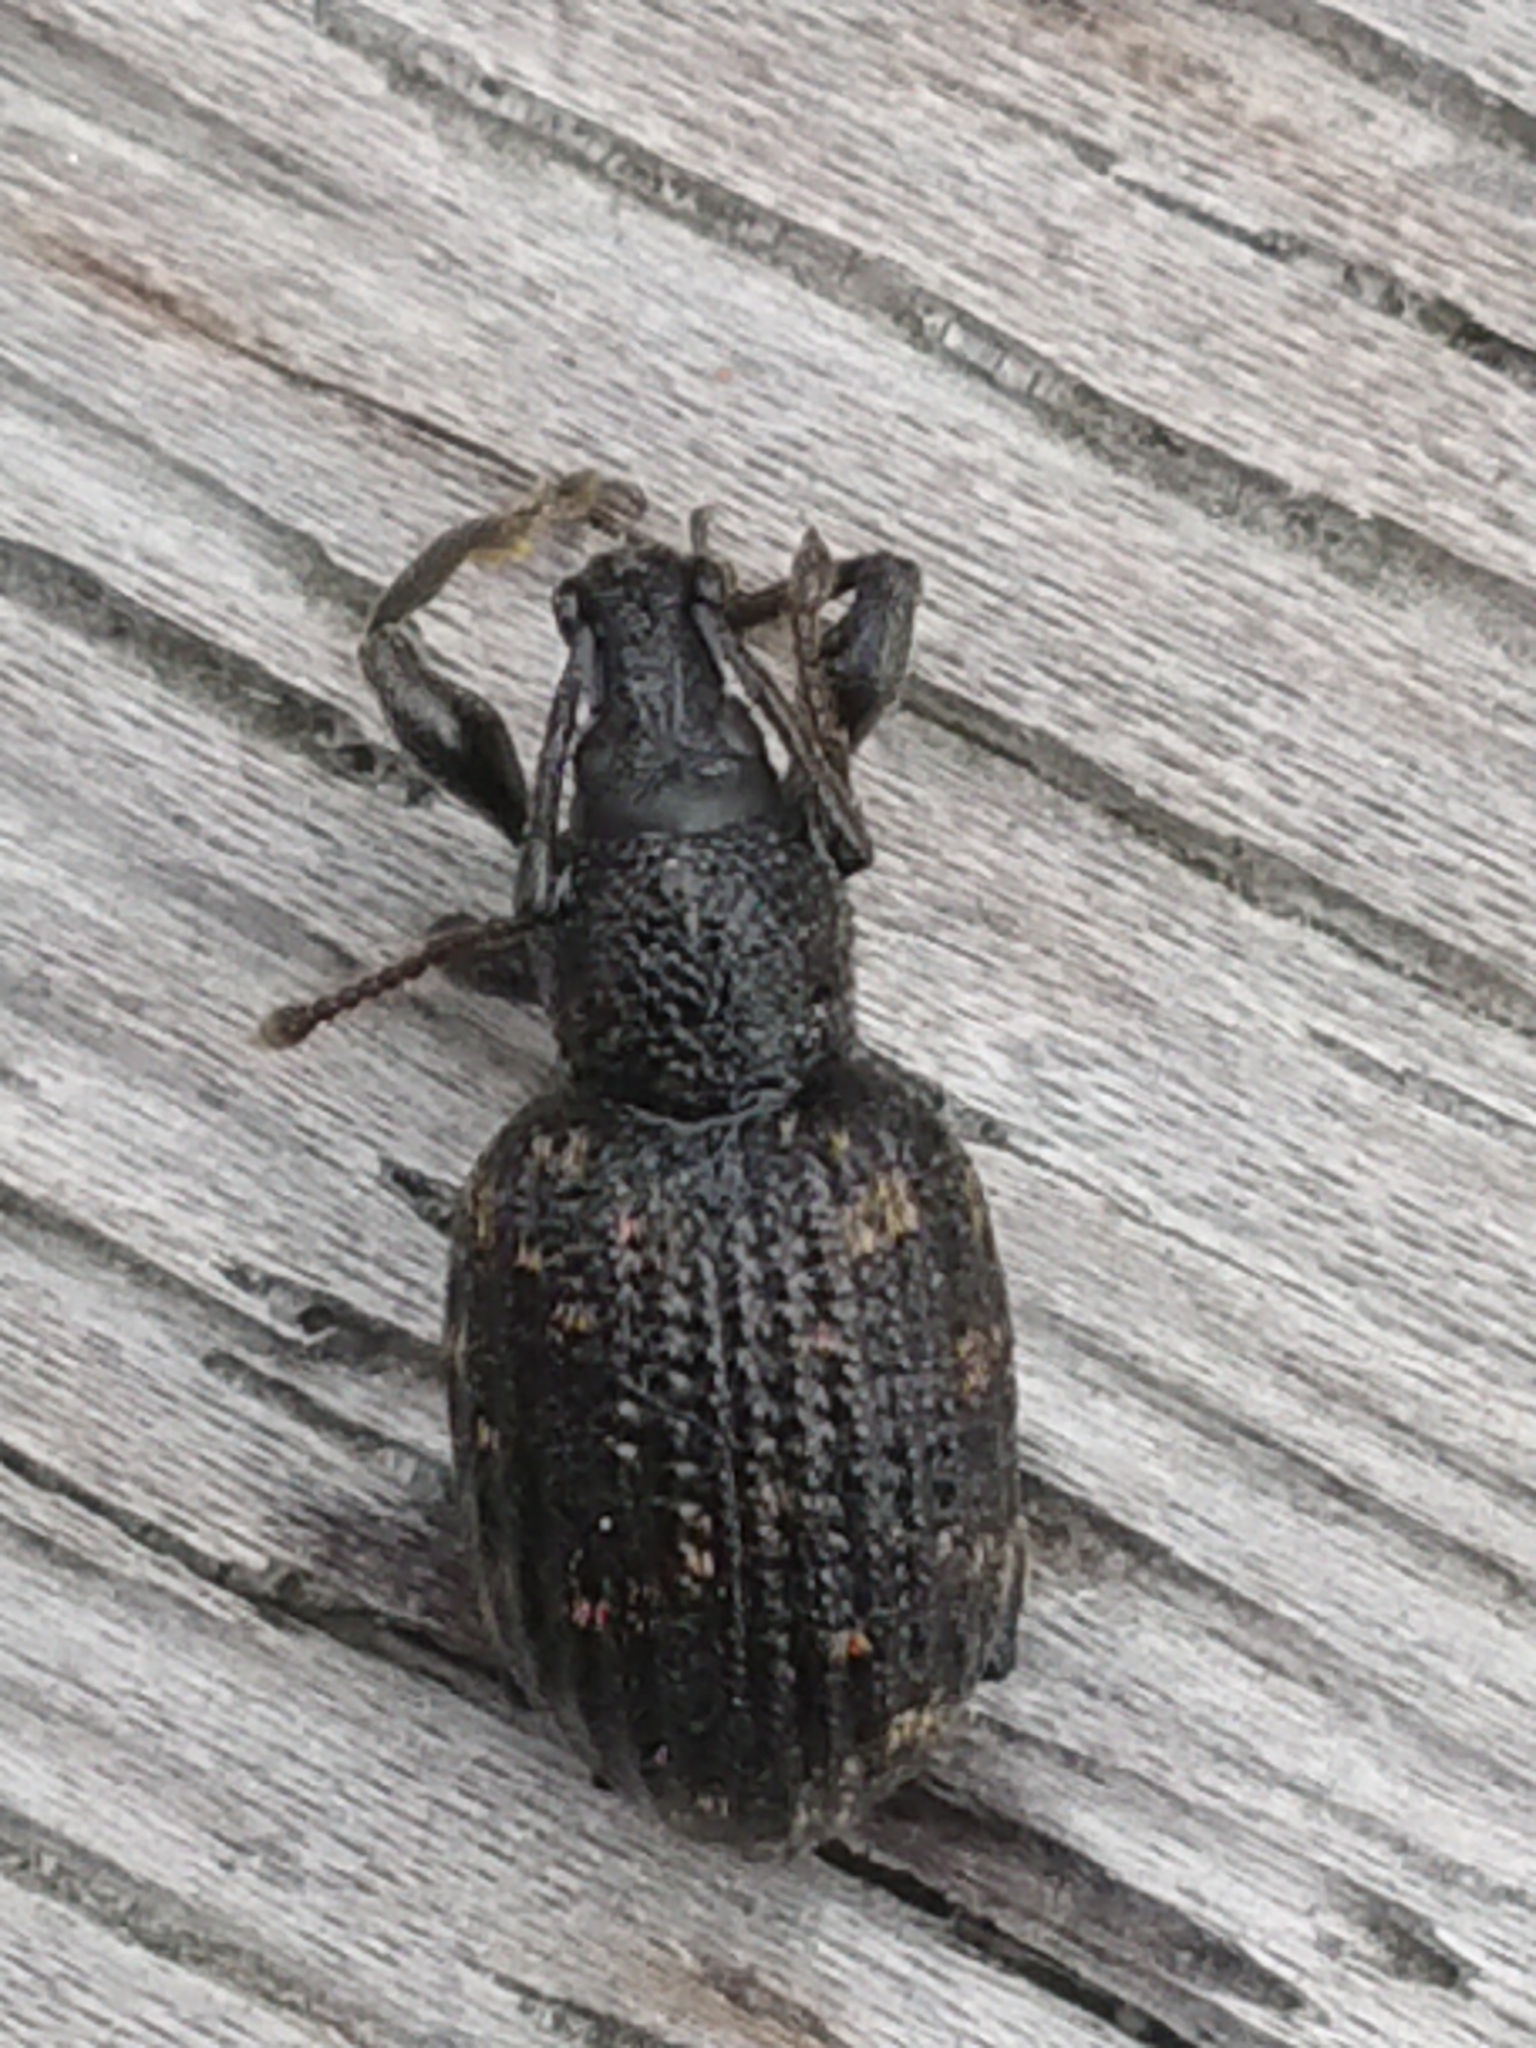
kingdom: Animalia
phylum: Arthropoda
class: Insecta
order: Coleoptera
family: Curculionidae
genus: Otiorhynchus
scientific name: Otiorhynchus sulcatus
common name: Black vine weevil
